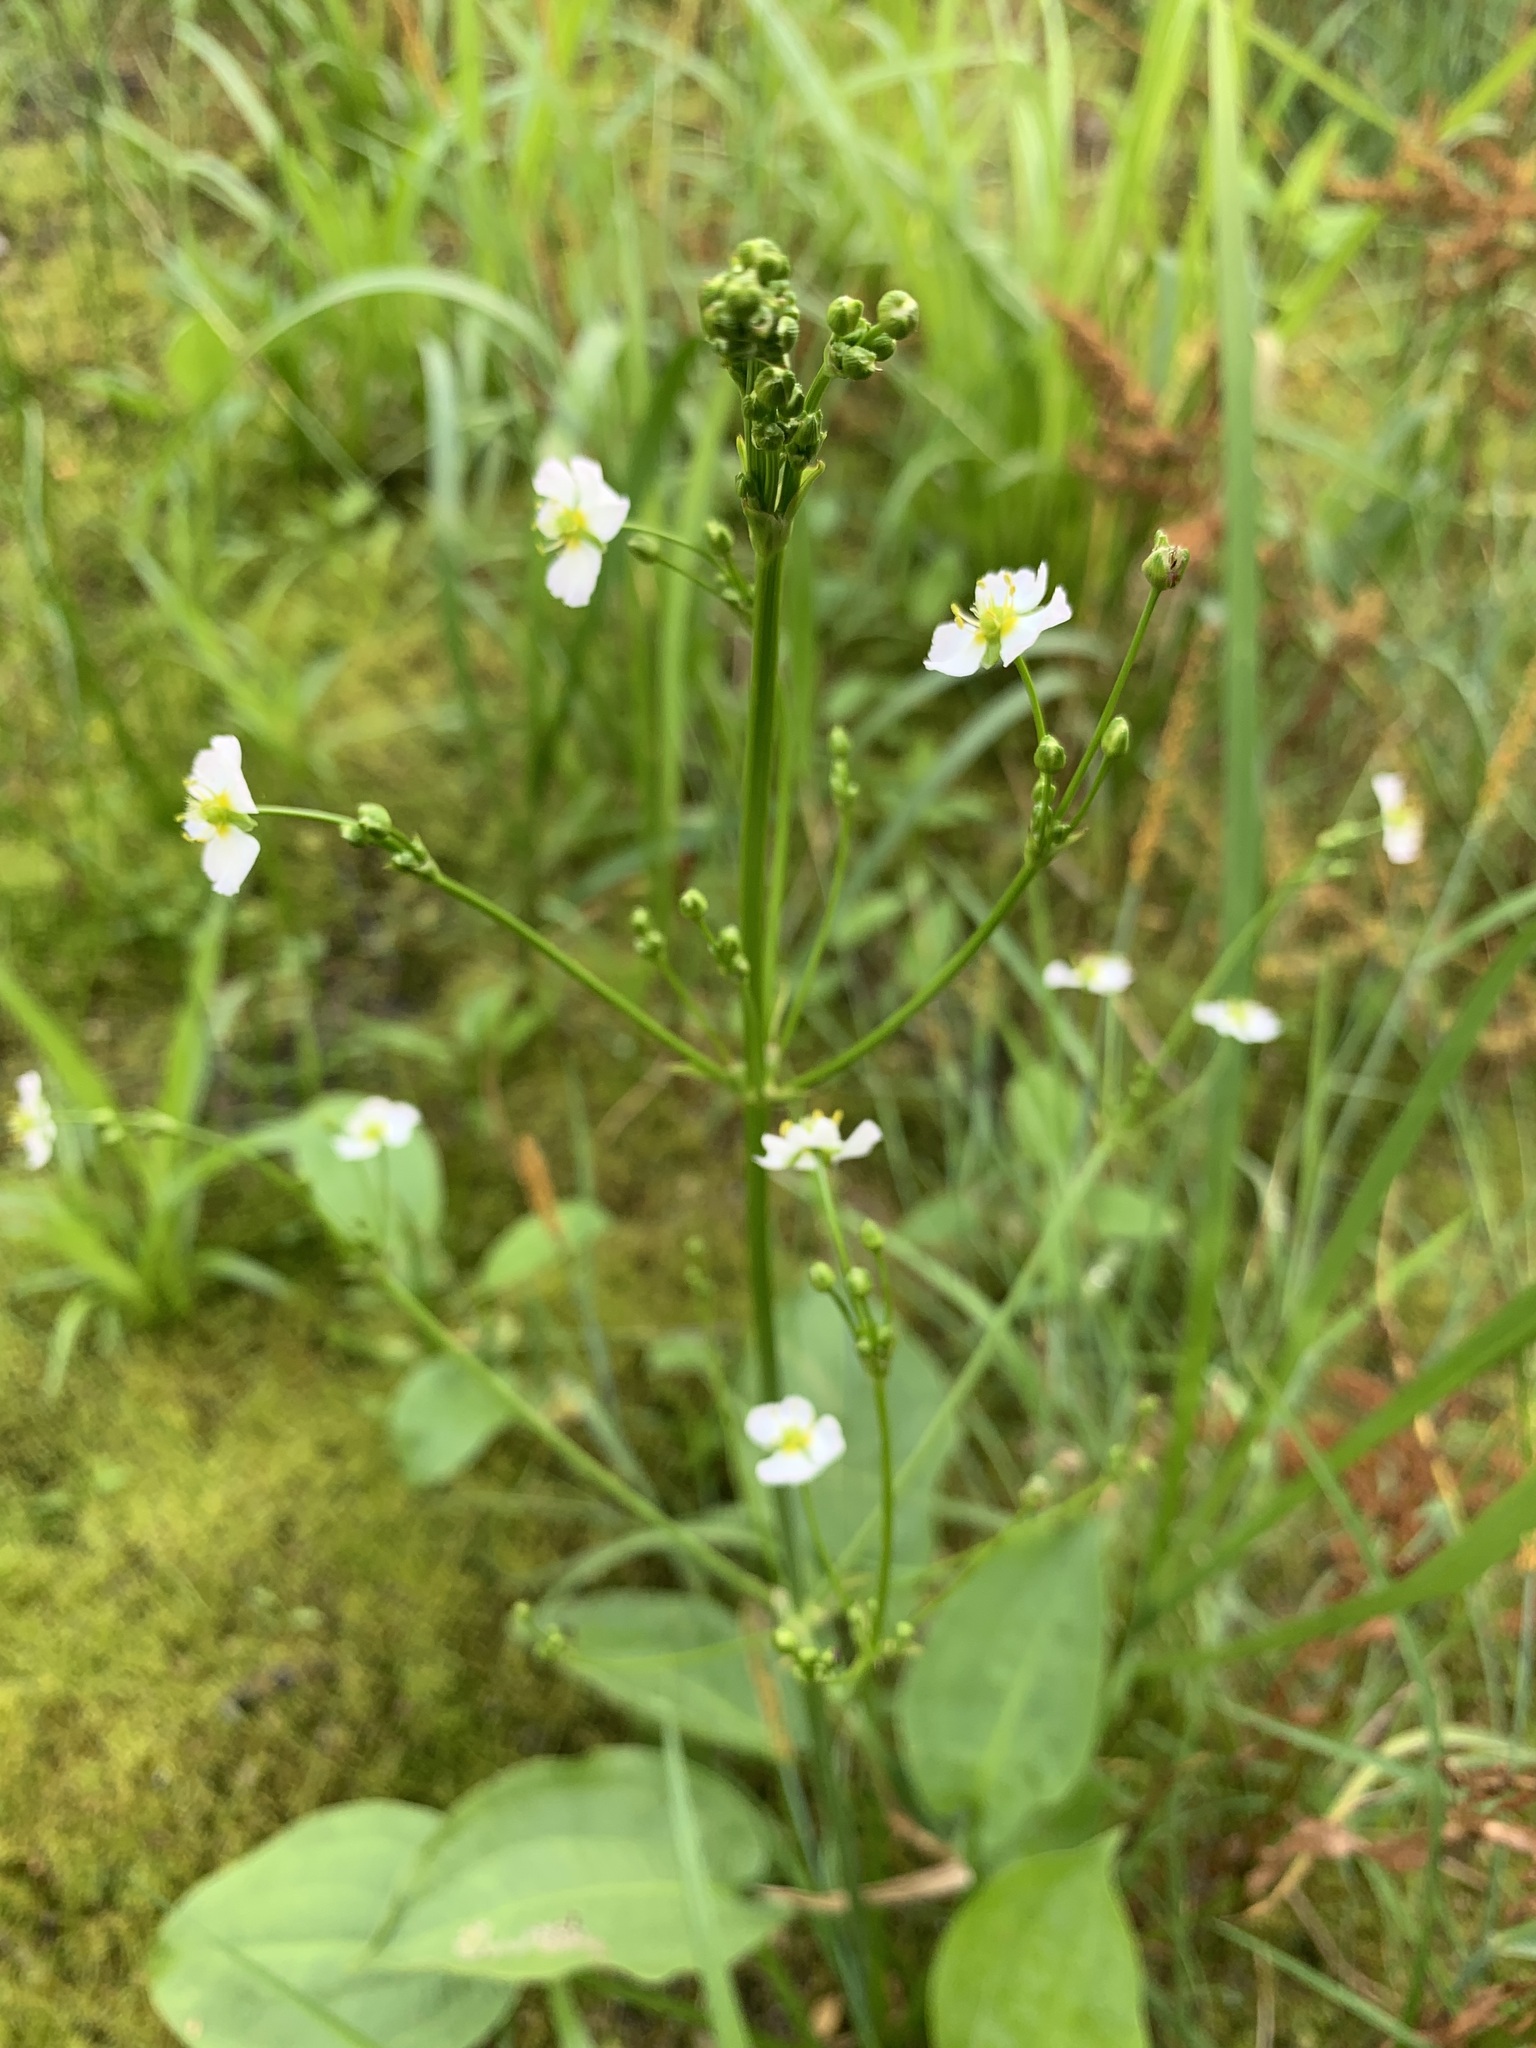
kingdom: Plantae
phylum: Tracheophyta
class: Liliopsida
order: Alismatales
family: Alismataceae
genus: Alisma
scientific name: Alisma plantago-aquatica
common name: Water-plantain
